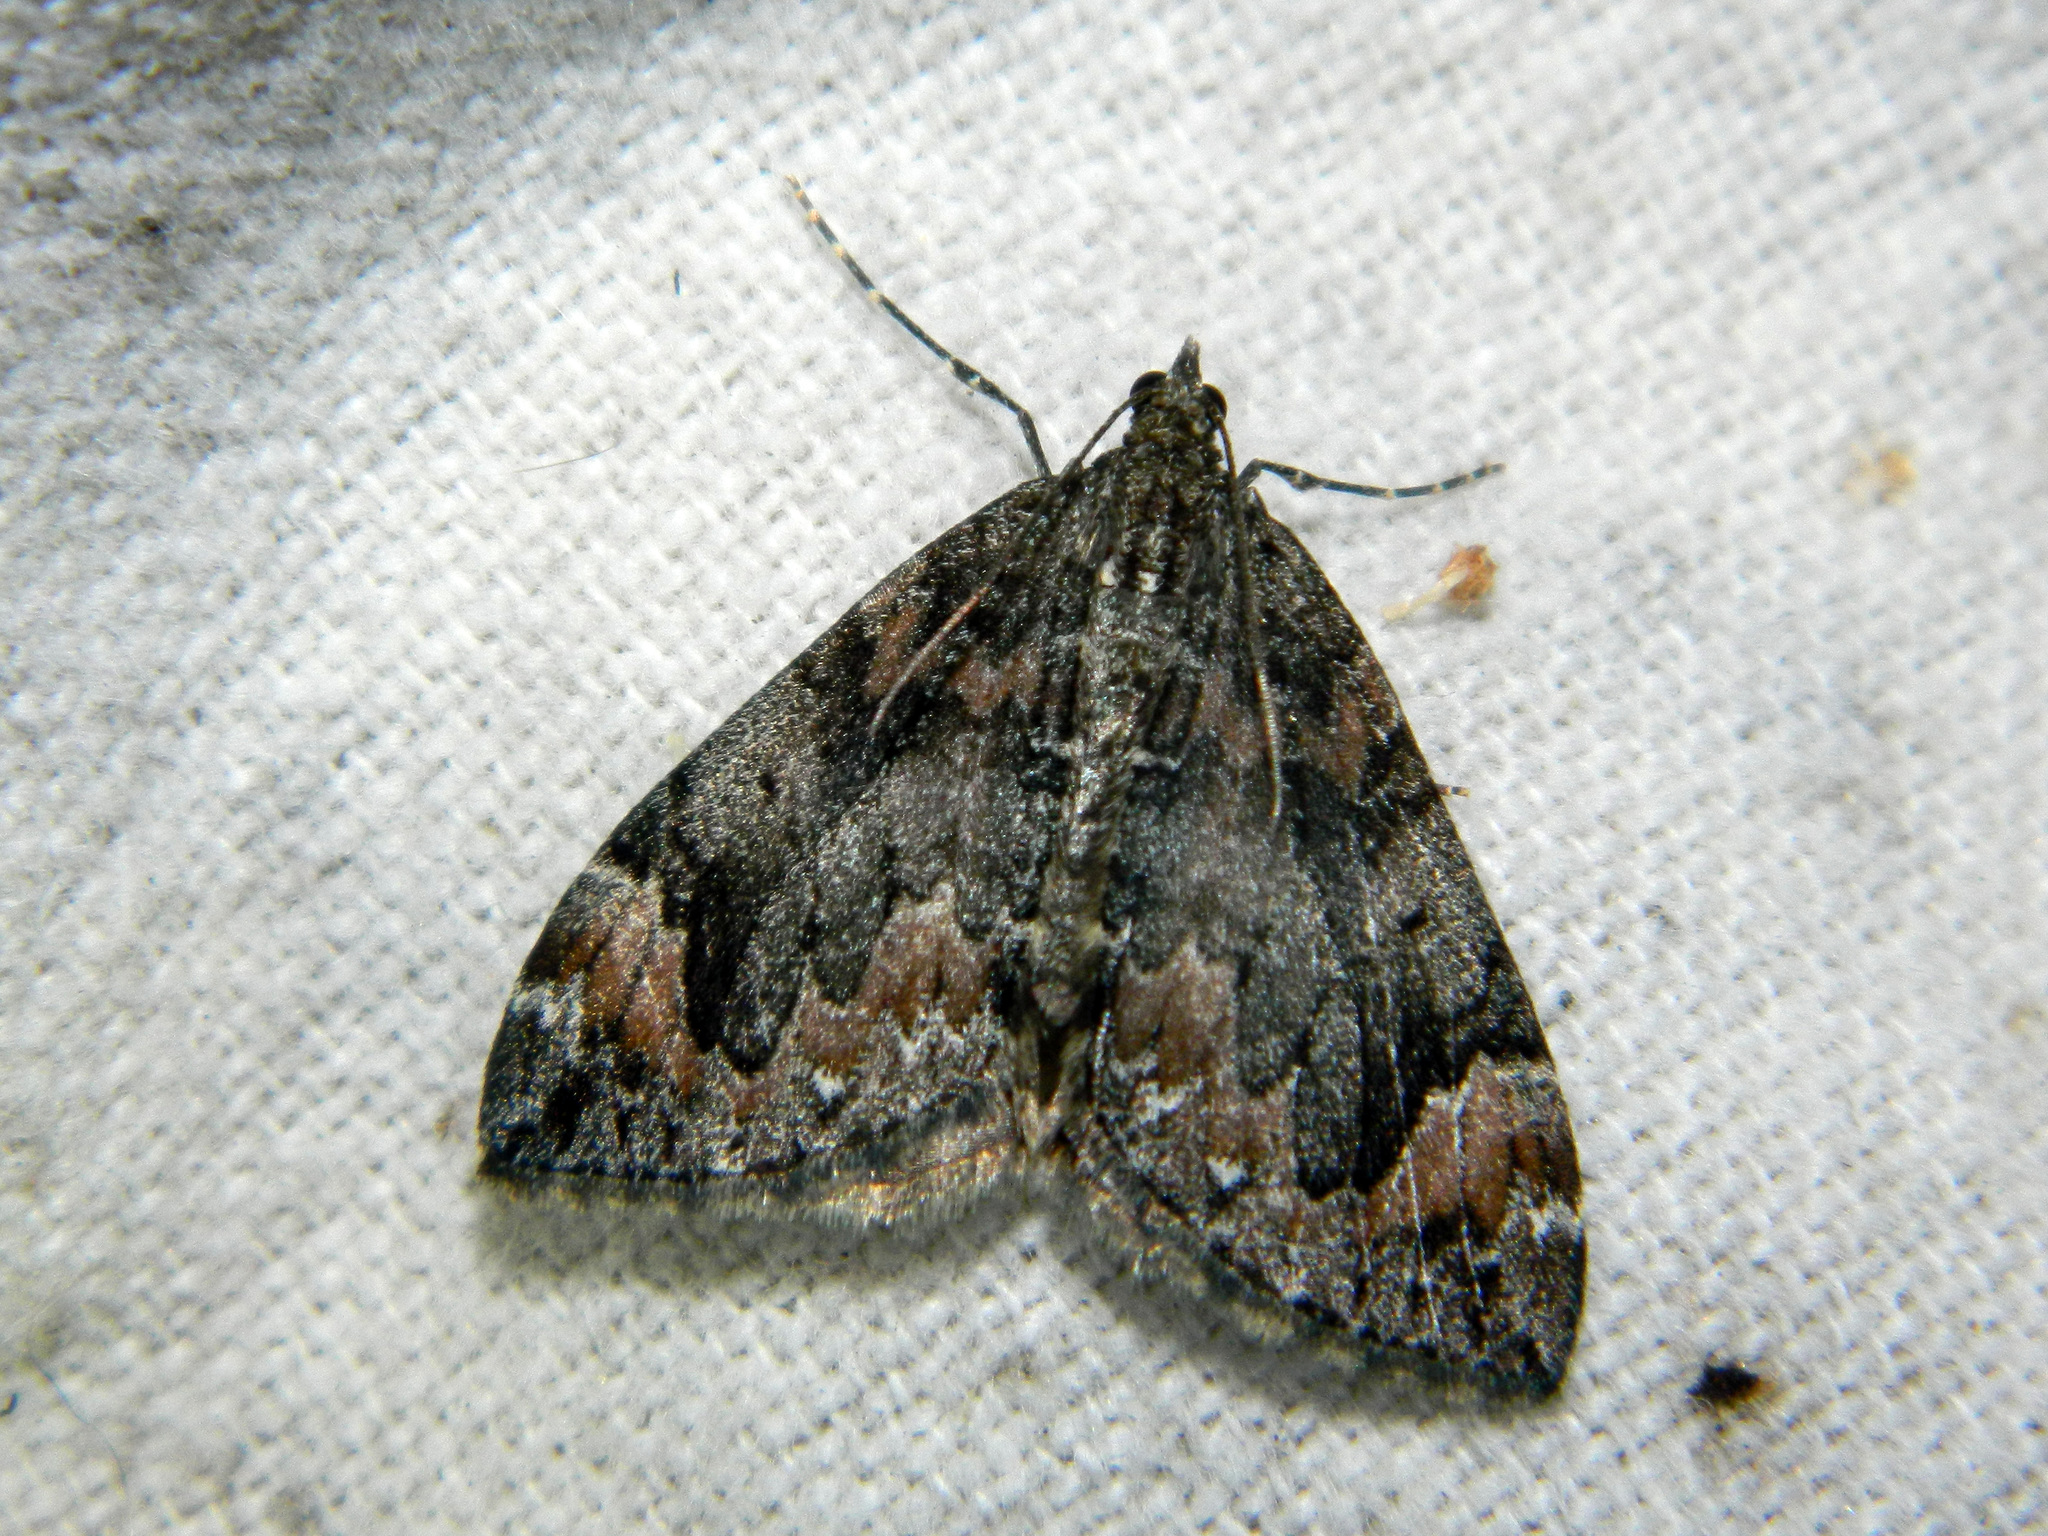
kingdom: Animalia
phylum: Arthropoda
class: Insecta
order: Lepidoptera
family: Geometridae
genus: Dysstroma
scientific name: Dysstroma citrata
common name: Dark marbled carpet
